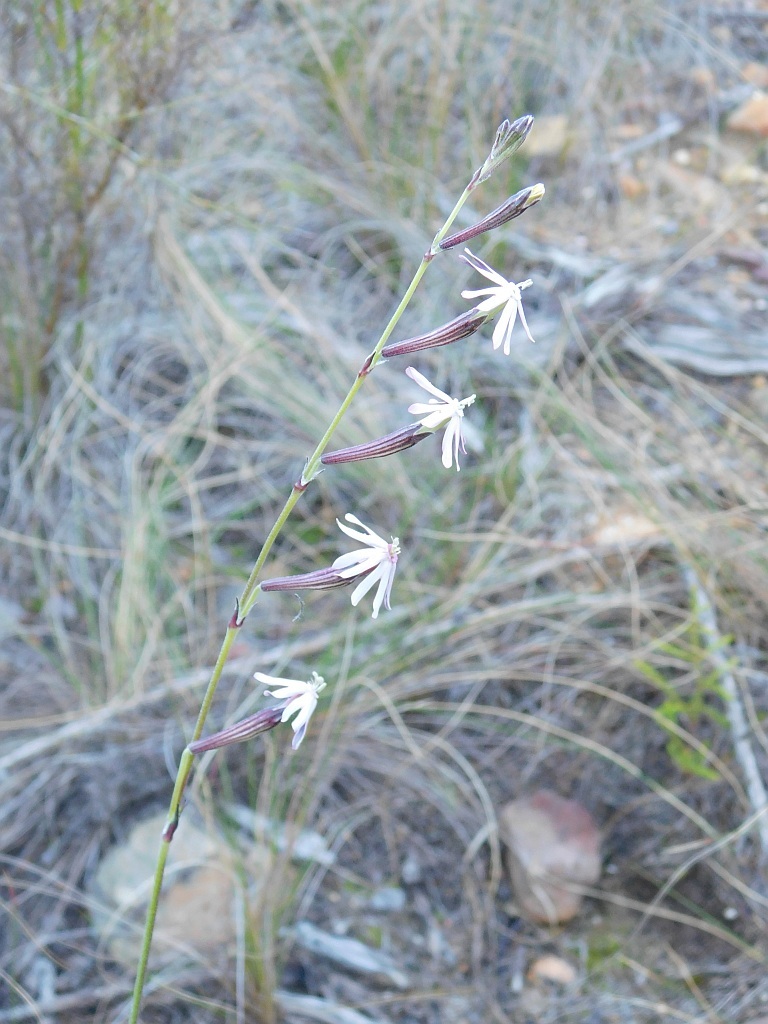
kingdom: Plantae
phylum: Tracheophyta
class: Magnoliopsida
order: Caryophyllales
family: Caryophyllaceae
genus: Silene
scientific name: Silene burchellii
